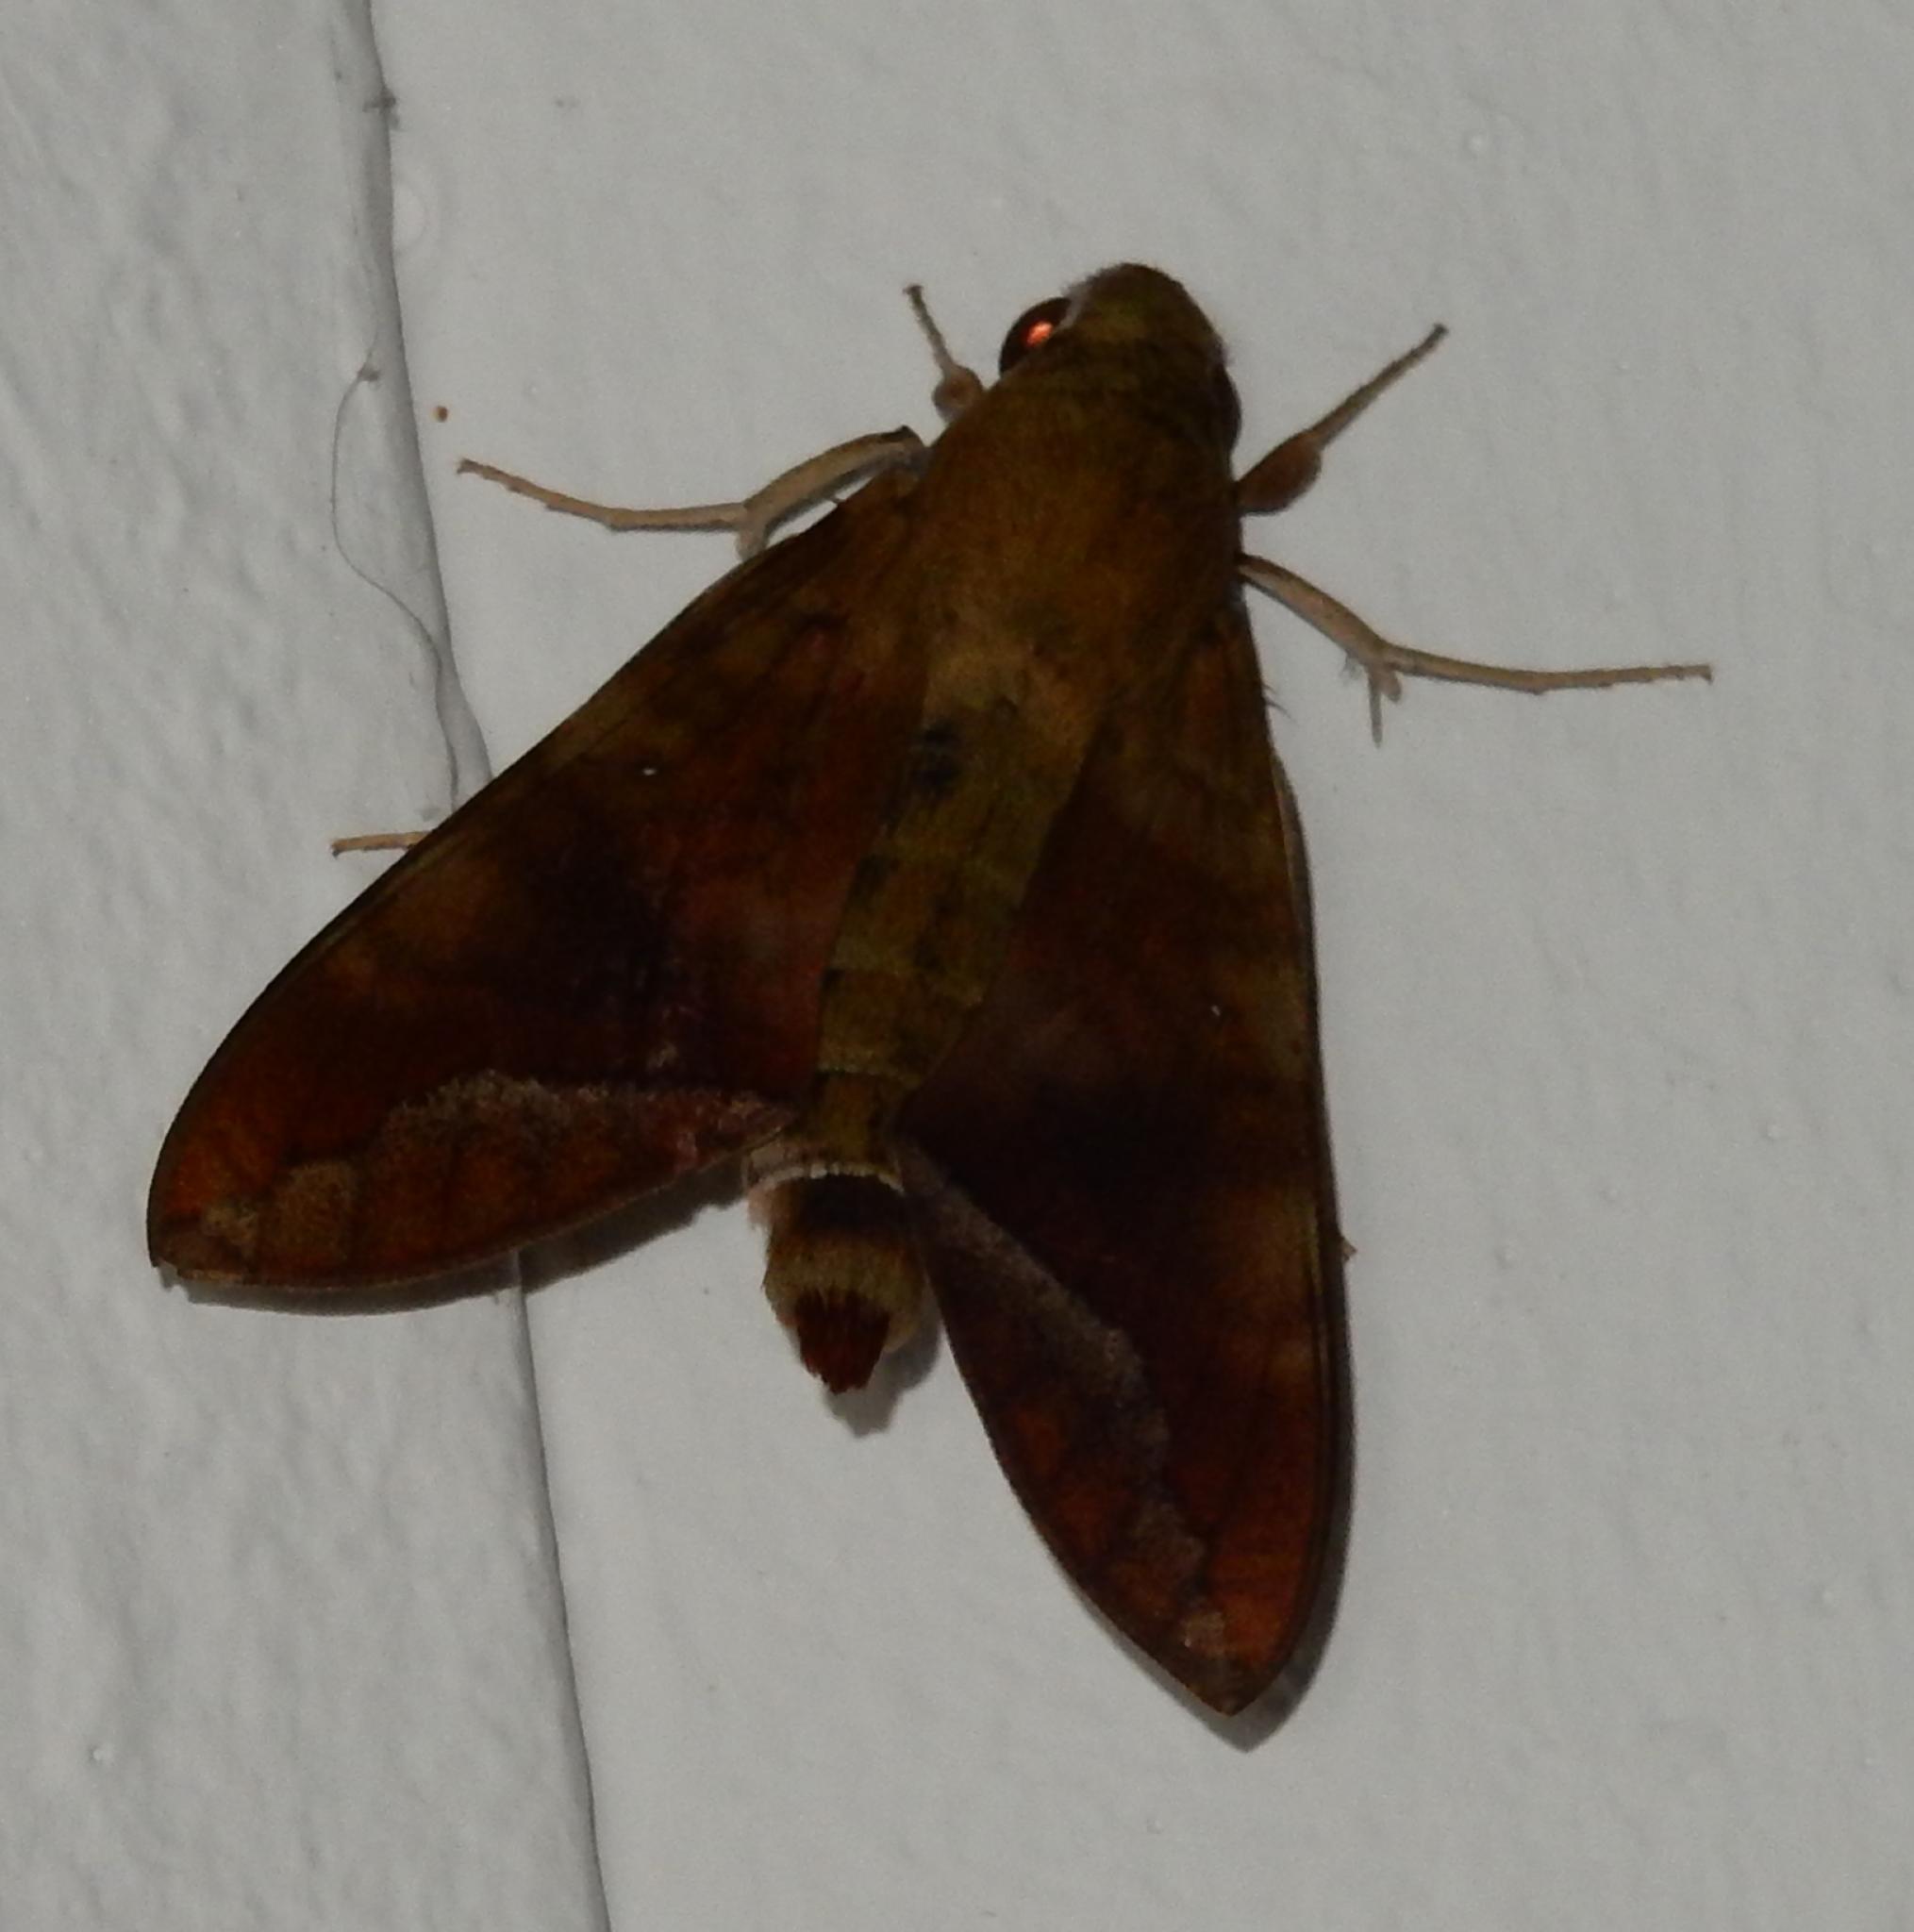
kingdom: Animalia
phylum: Arthropoda
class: Insecta
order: Lepidoptera
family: Sphingidae
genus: Nephele
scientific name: Nephele comma
